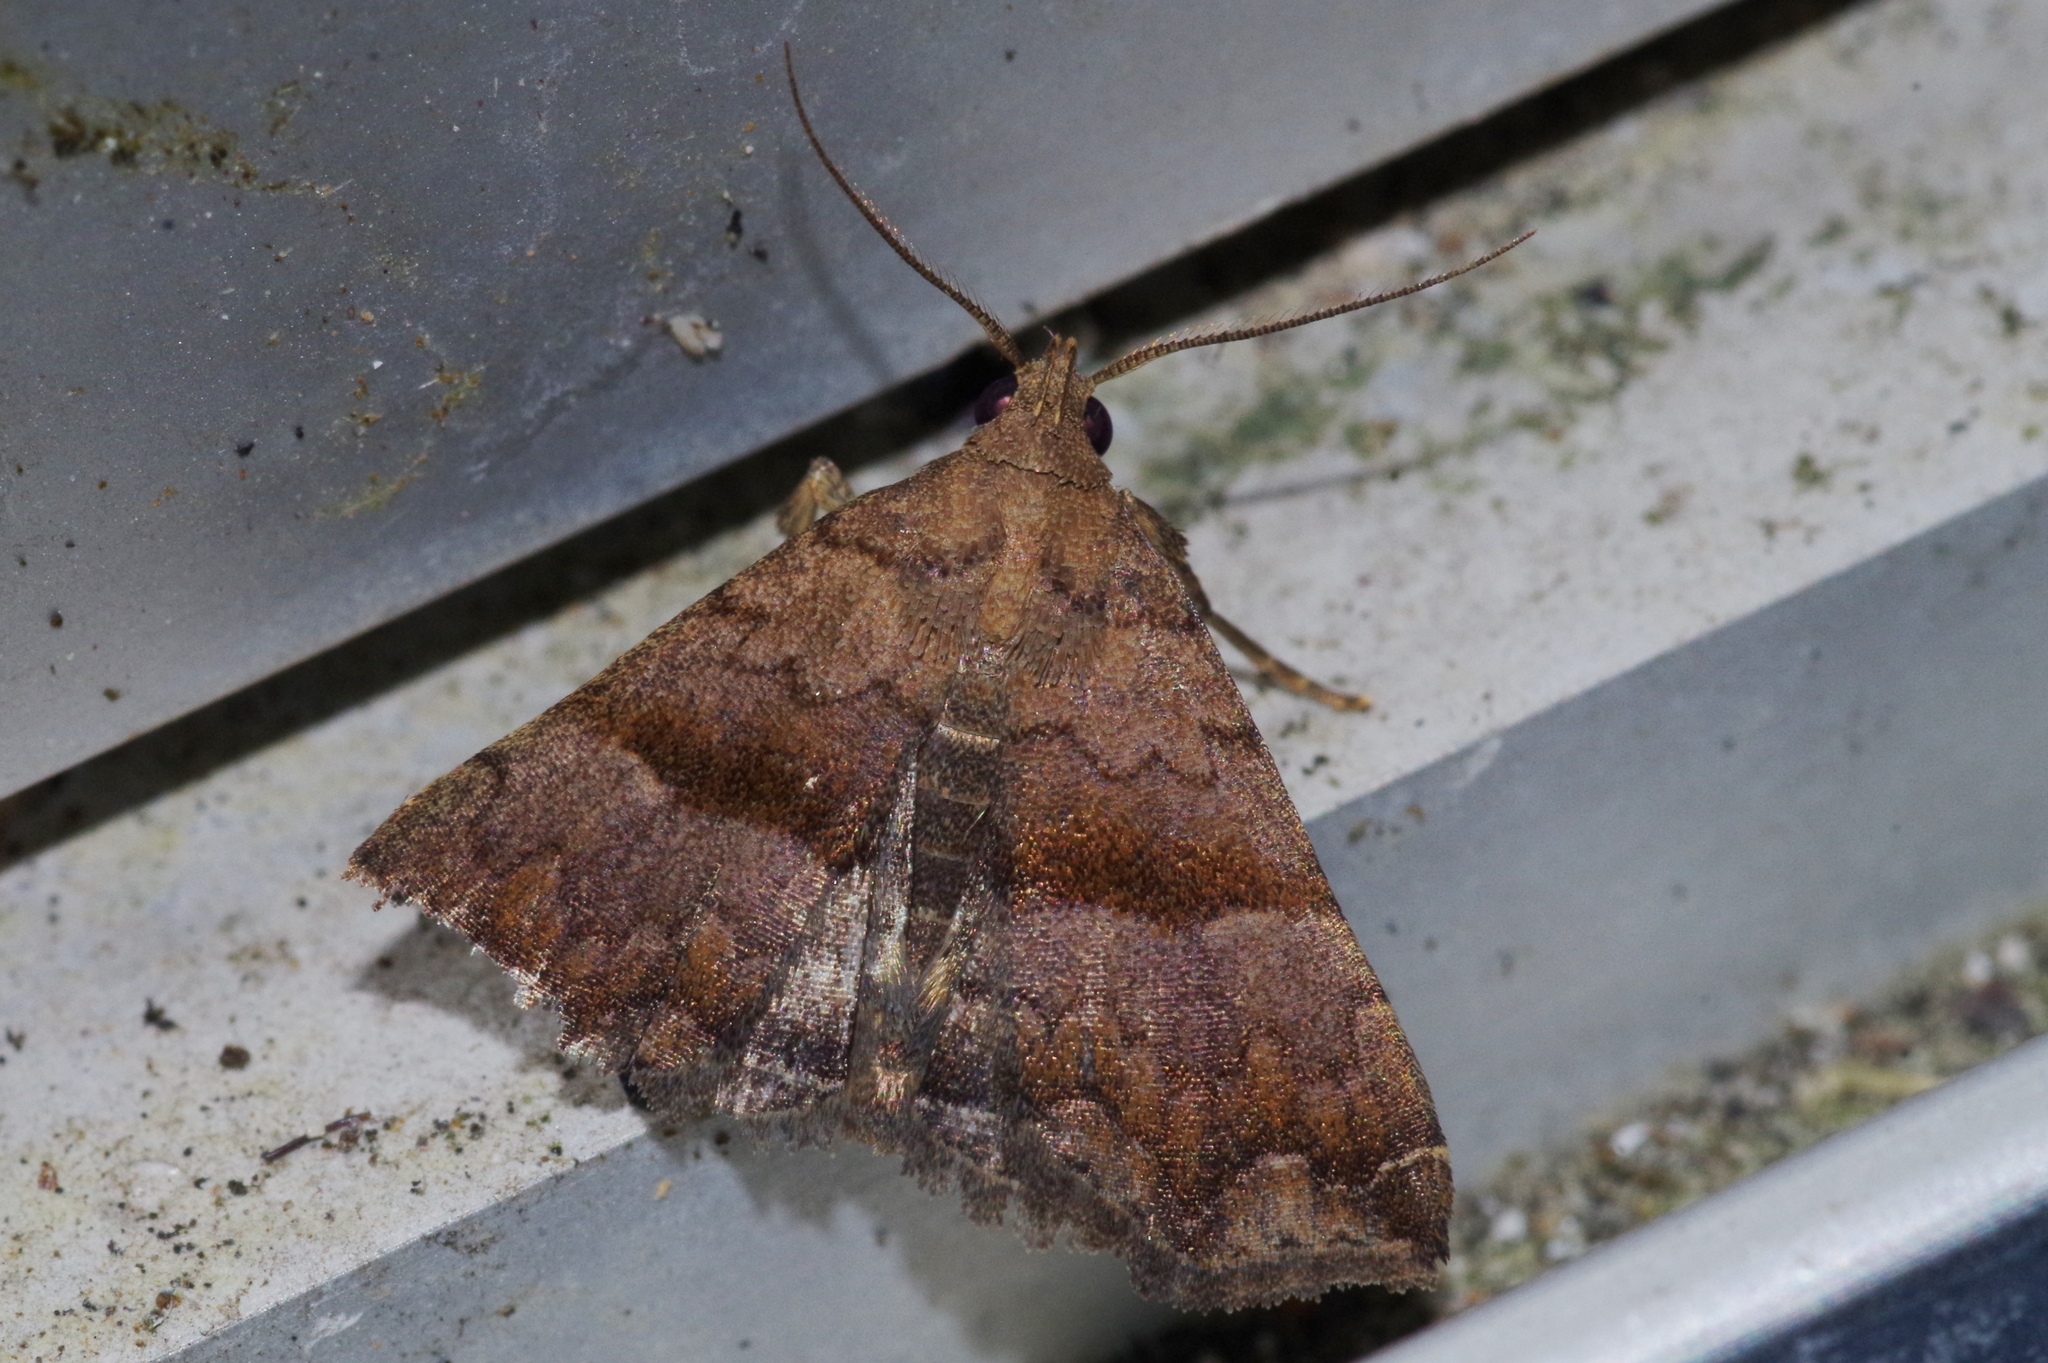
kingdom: Animalia
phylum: Arthropoda
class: Insecta
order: Lepidoptera
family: Erebidae
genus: Polypogon
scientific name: Polypogon Hipoepa fractalis
